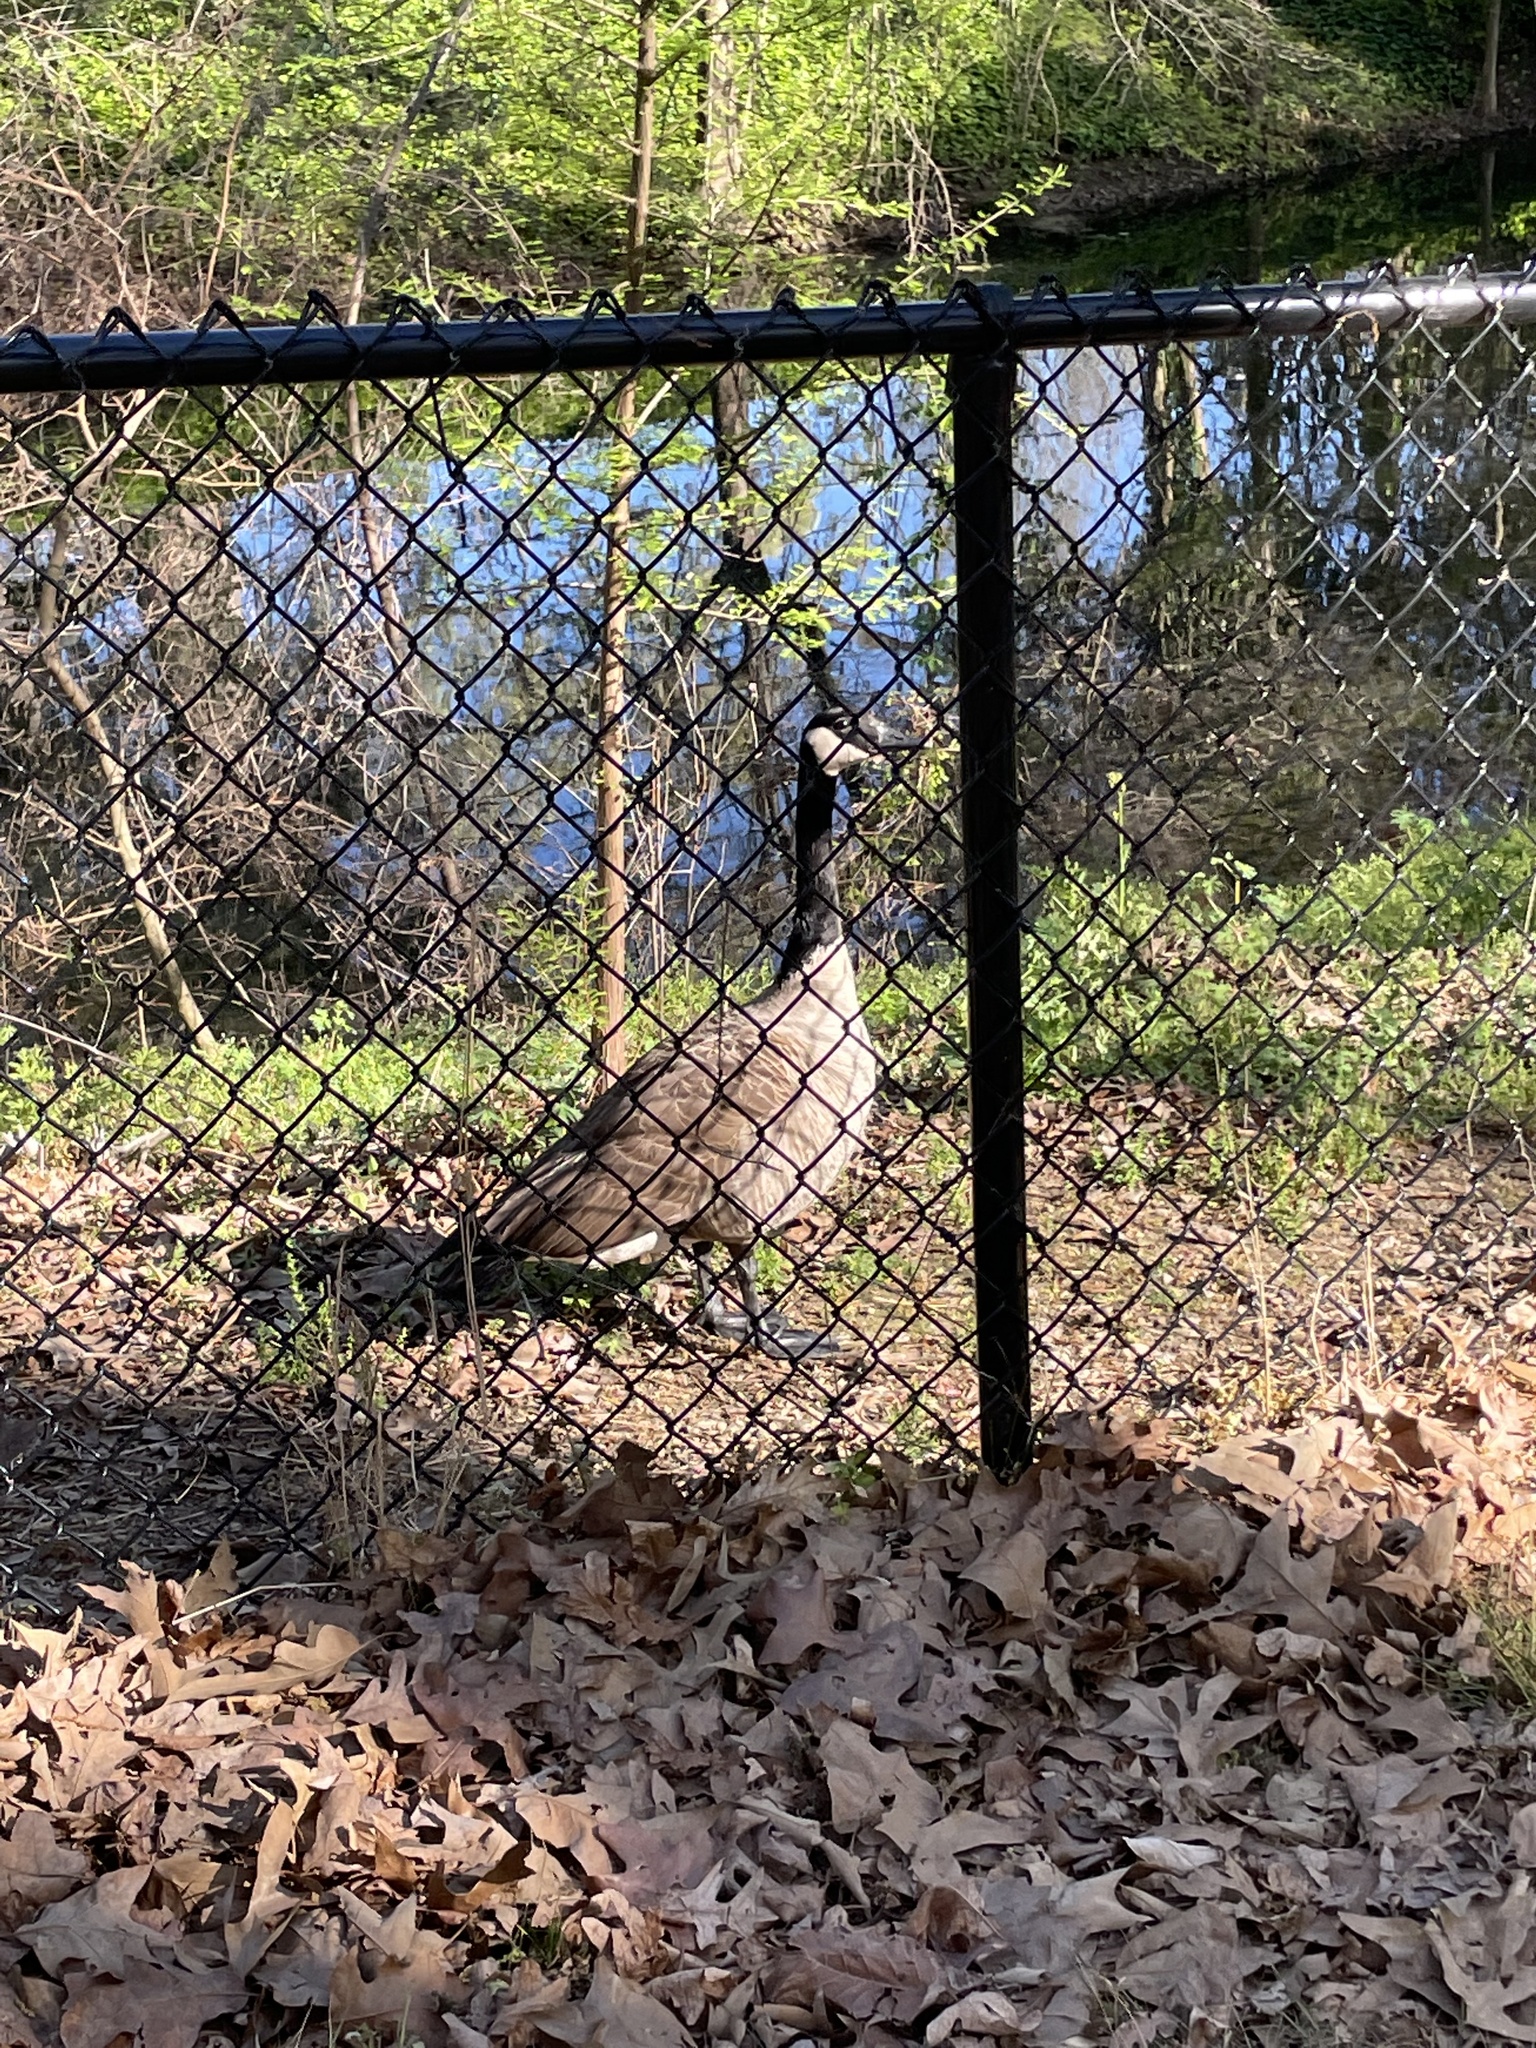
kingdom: Animalia
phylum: Chordata
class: Aves
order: Anseriformes
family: Anatidae
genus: Branta
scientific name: Branta canadensis
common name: Canada goose
